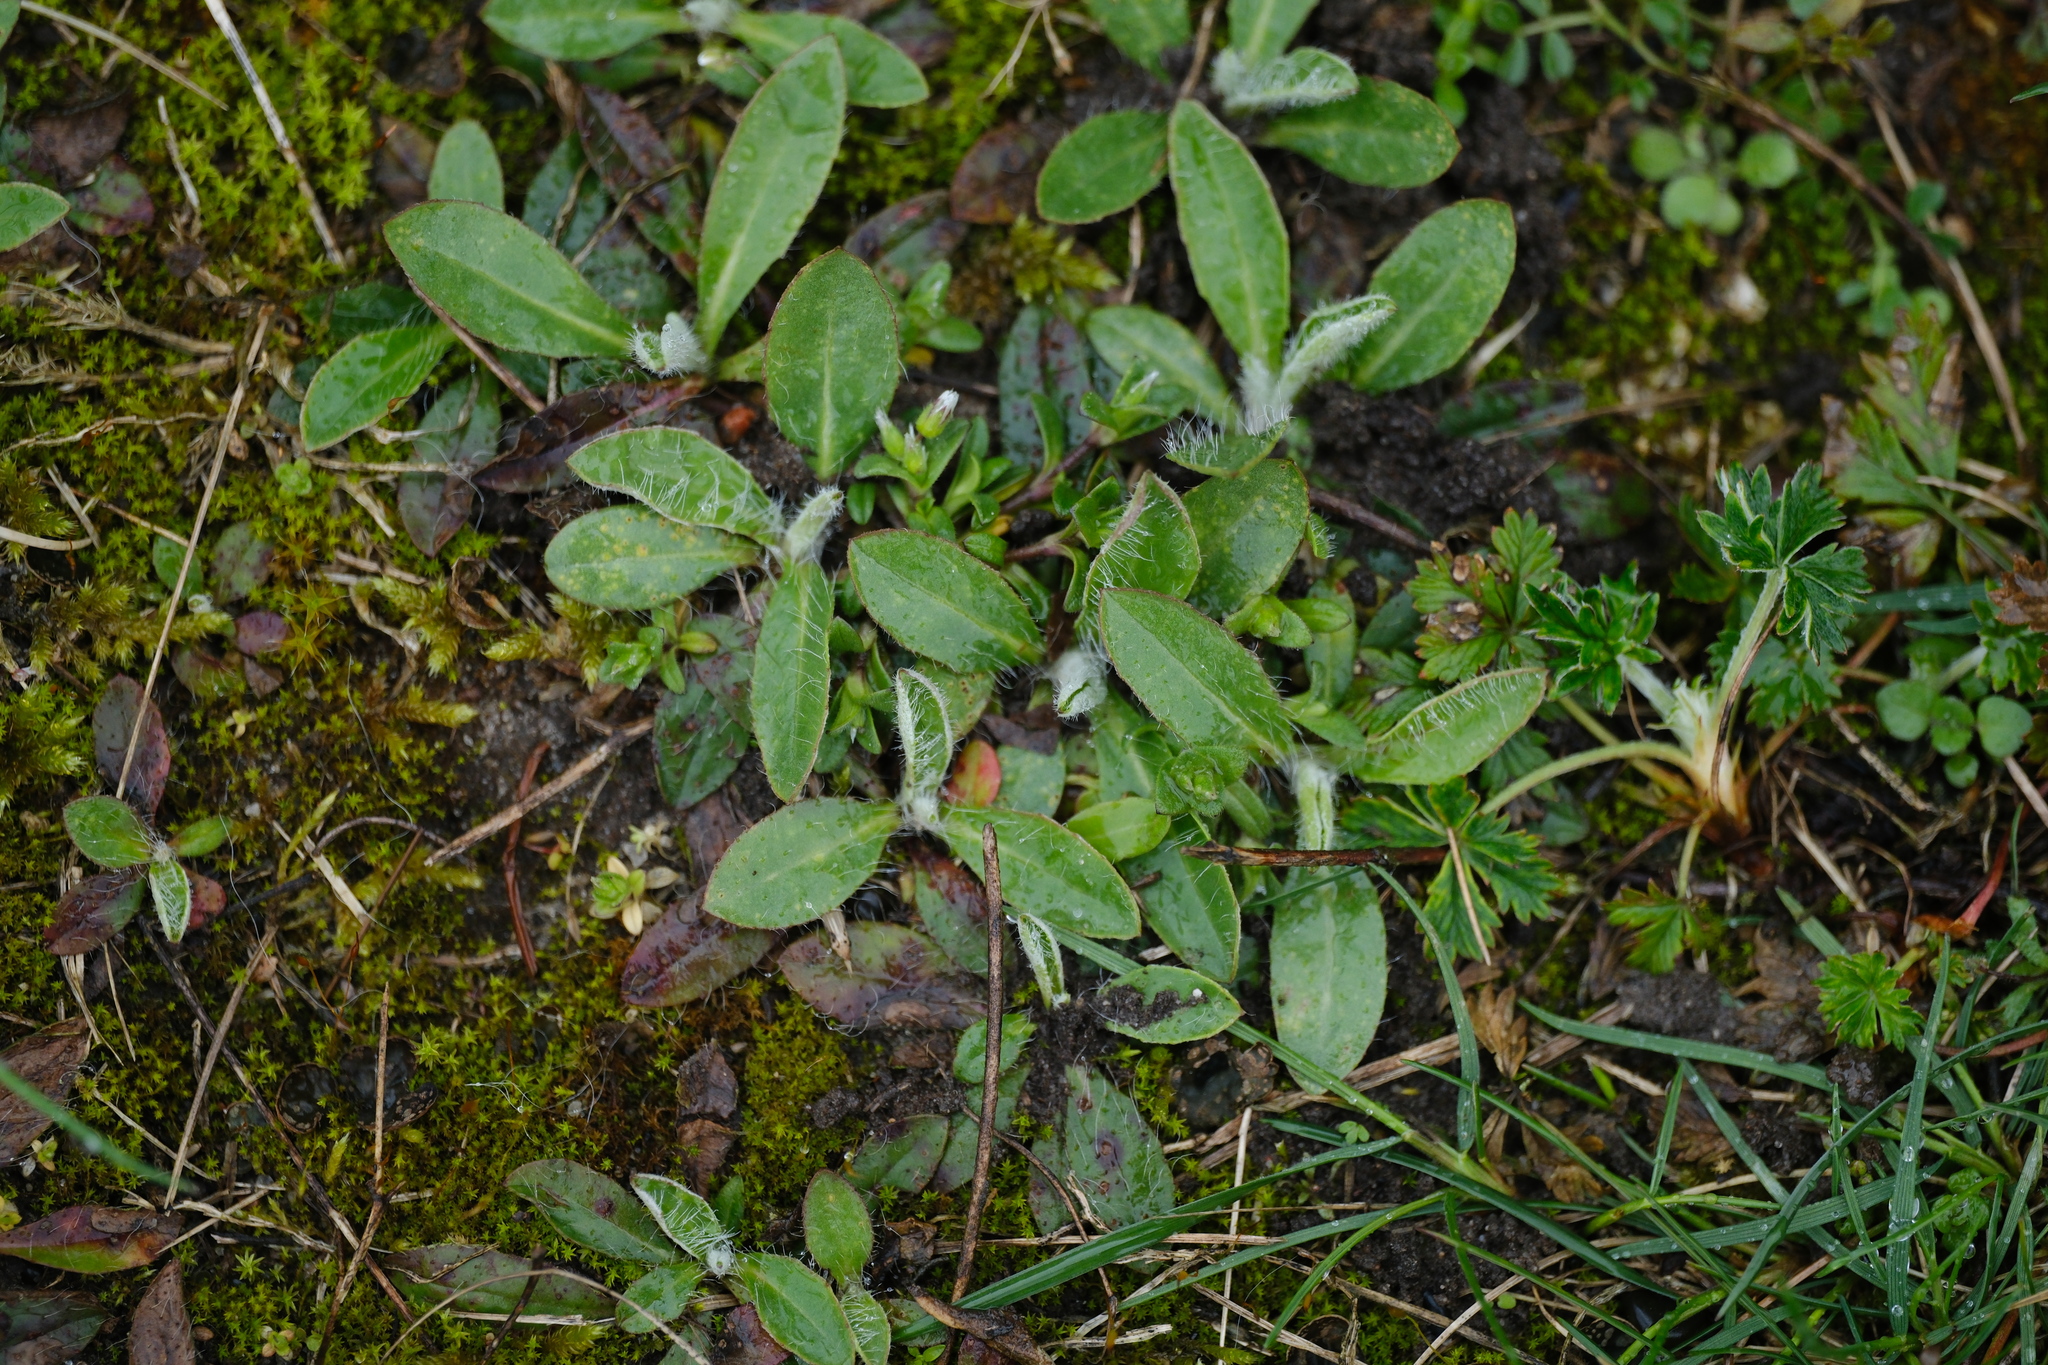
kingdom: Plantae
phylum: Tracheophyta
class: Magnoliopsida
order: Asterales
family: Asteraceae
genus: Pilosella
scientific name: Pilosella officinarum
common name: Mouse-ear hawkweed
